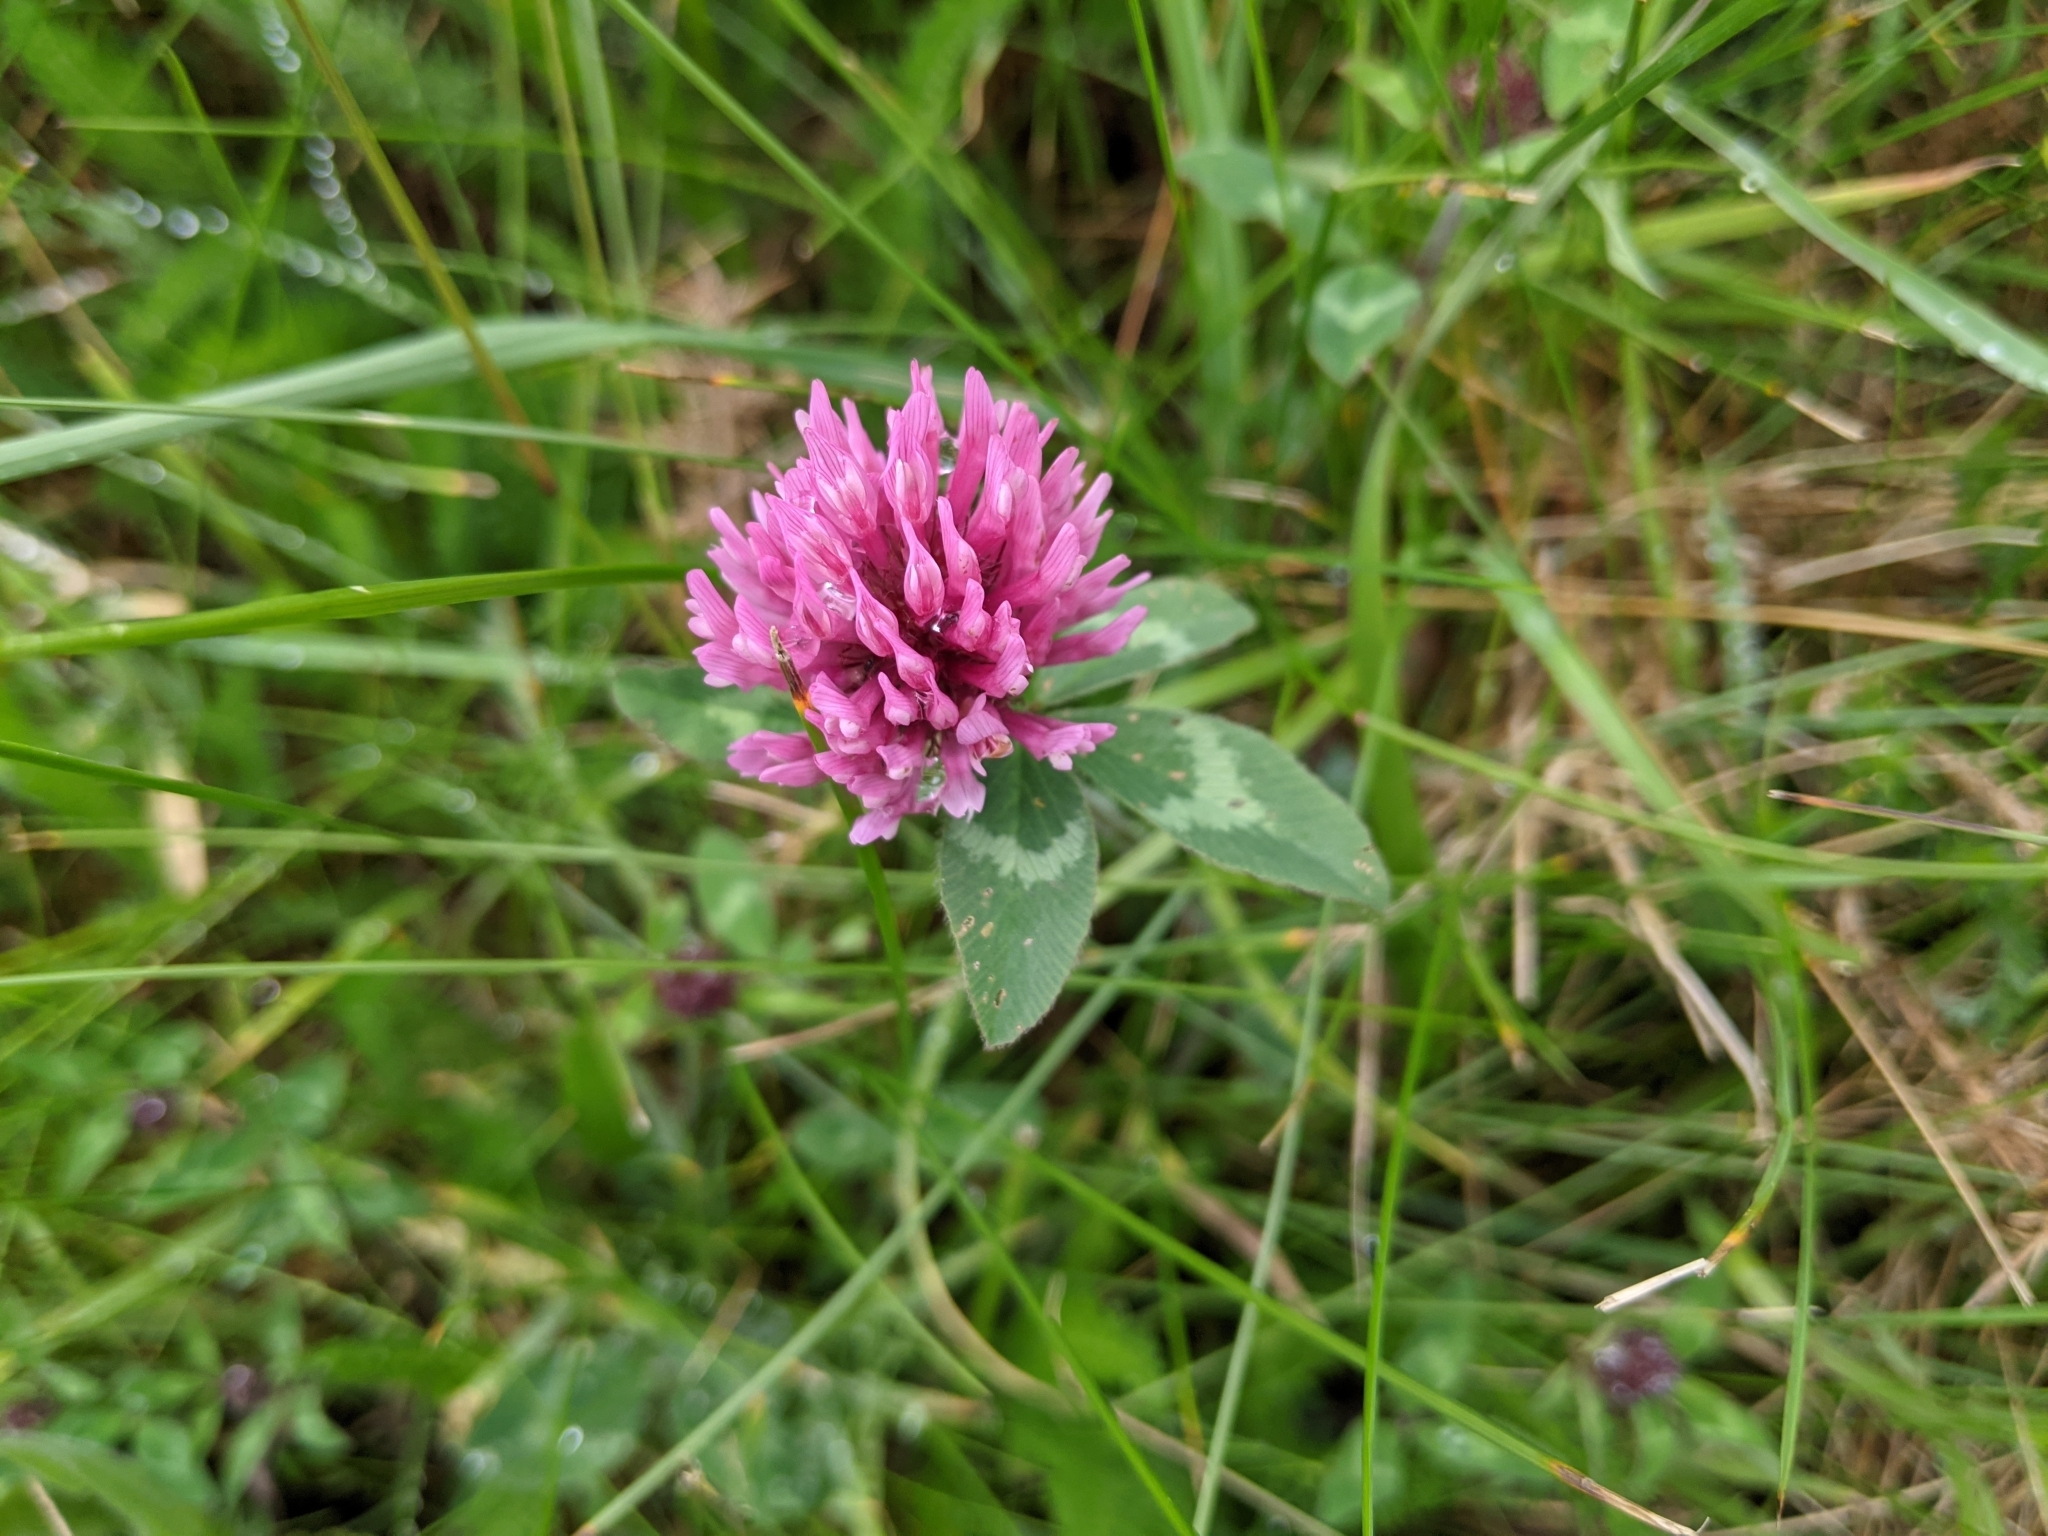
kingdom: Plantae
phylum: Tracheophyta
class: Magnoliopsida
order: Fabales
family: Fabaceae
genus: Trifolium
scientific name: Trifolium pratense
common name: Red clover
